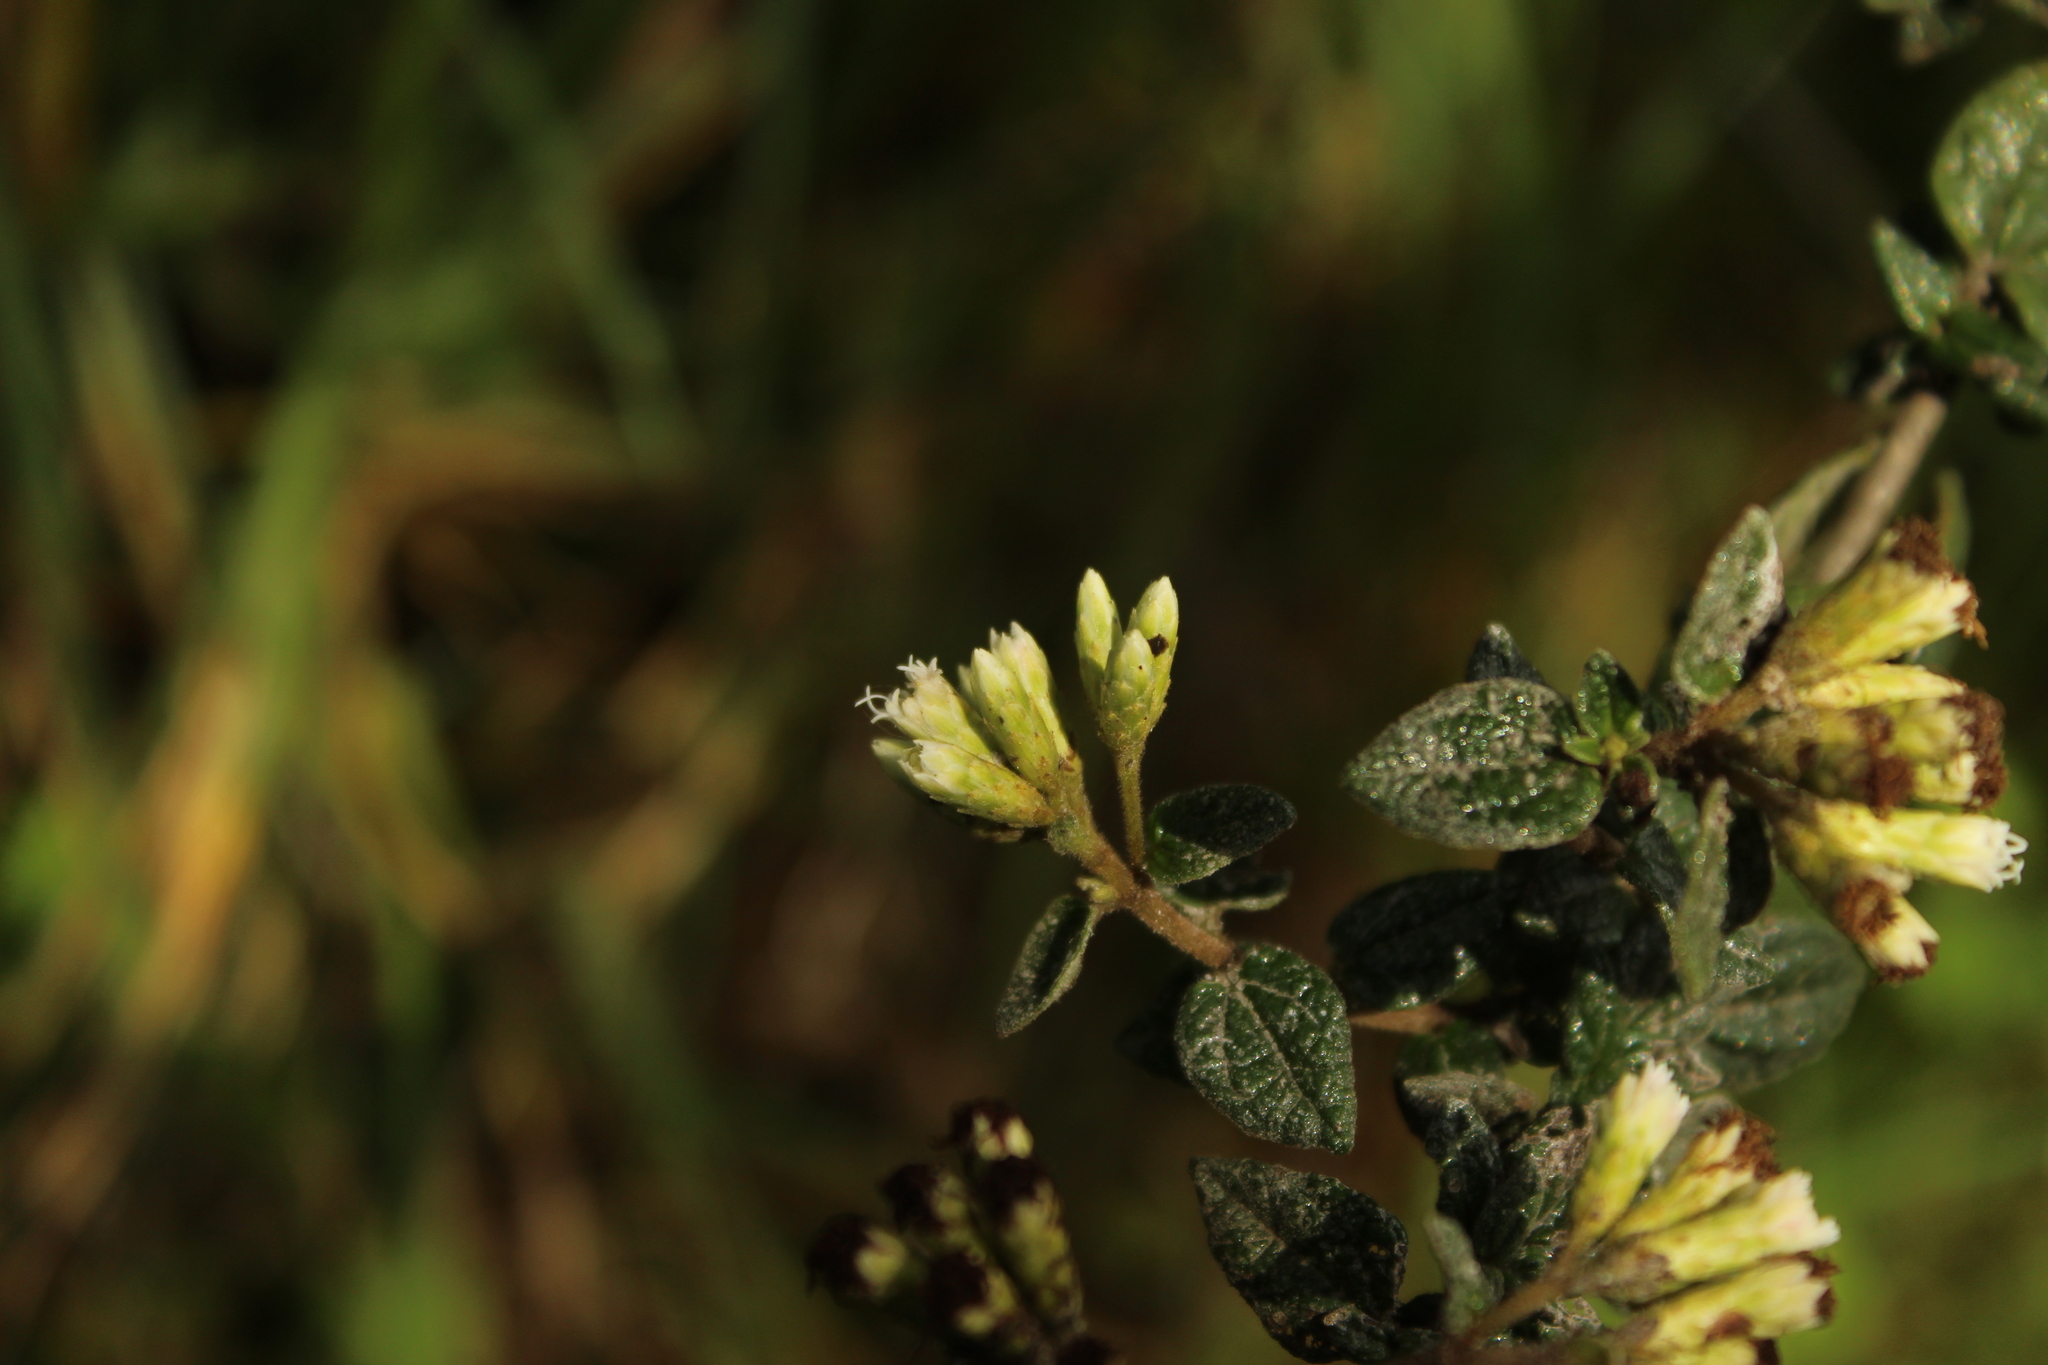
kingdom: Plantae
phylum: Tracheophyta
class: Magnoliopsida
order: Asterales
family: Asteraceae
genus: Chromolaena
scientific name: Chromolaena bullata
